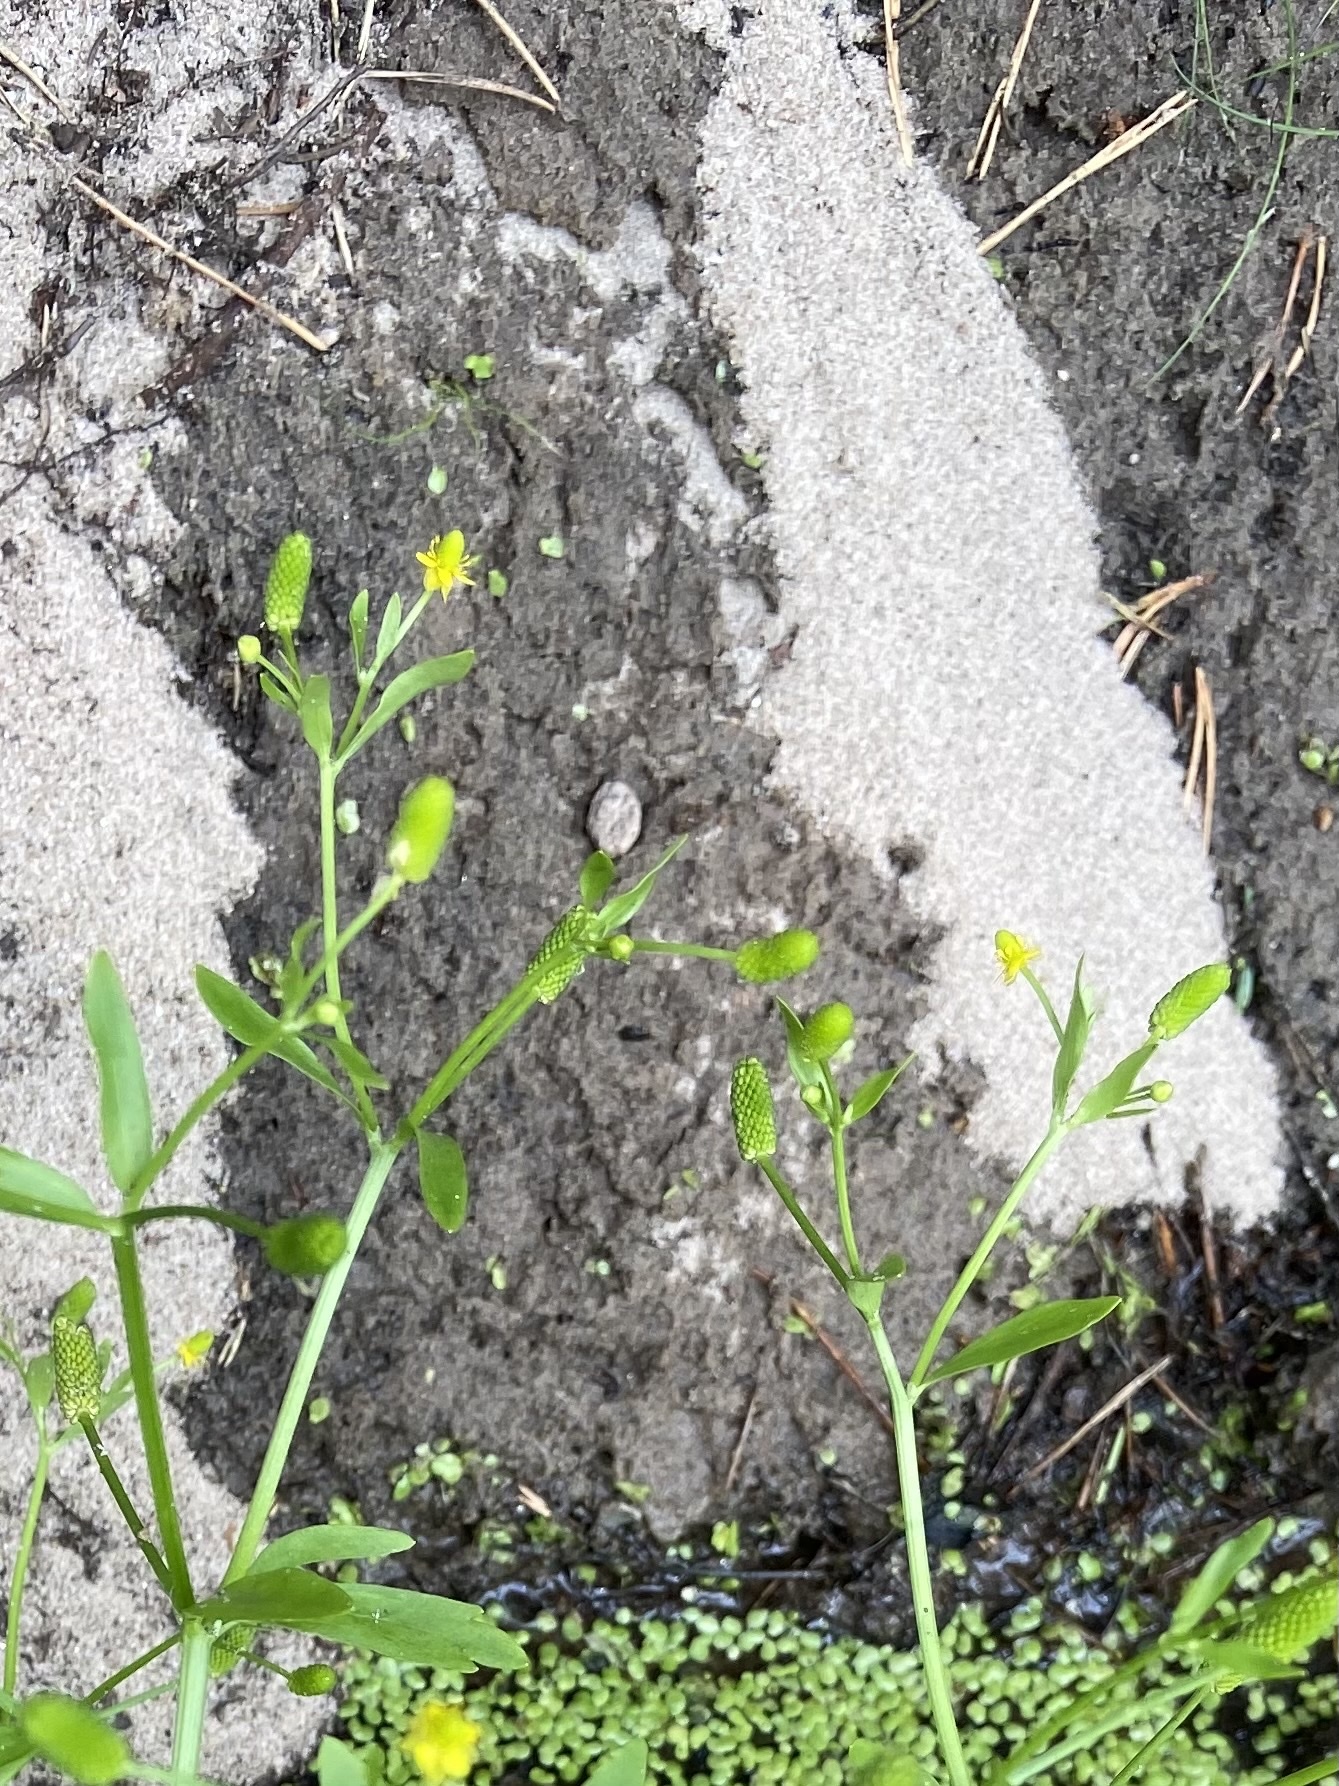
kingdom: Plantae
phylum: Tracheophyta
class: Magnoliopsida
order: Ranunculales
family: Ranunculaceae
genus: Ranunculus
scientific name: Ranunculus sceleratus
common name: Celery-leaved buttercup
